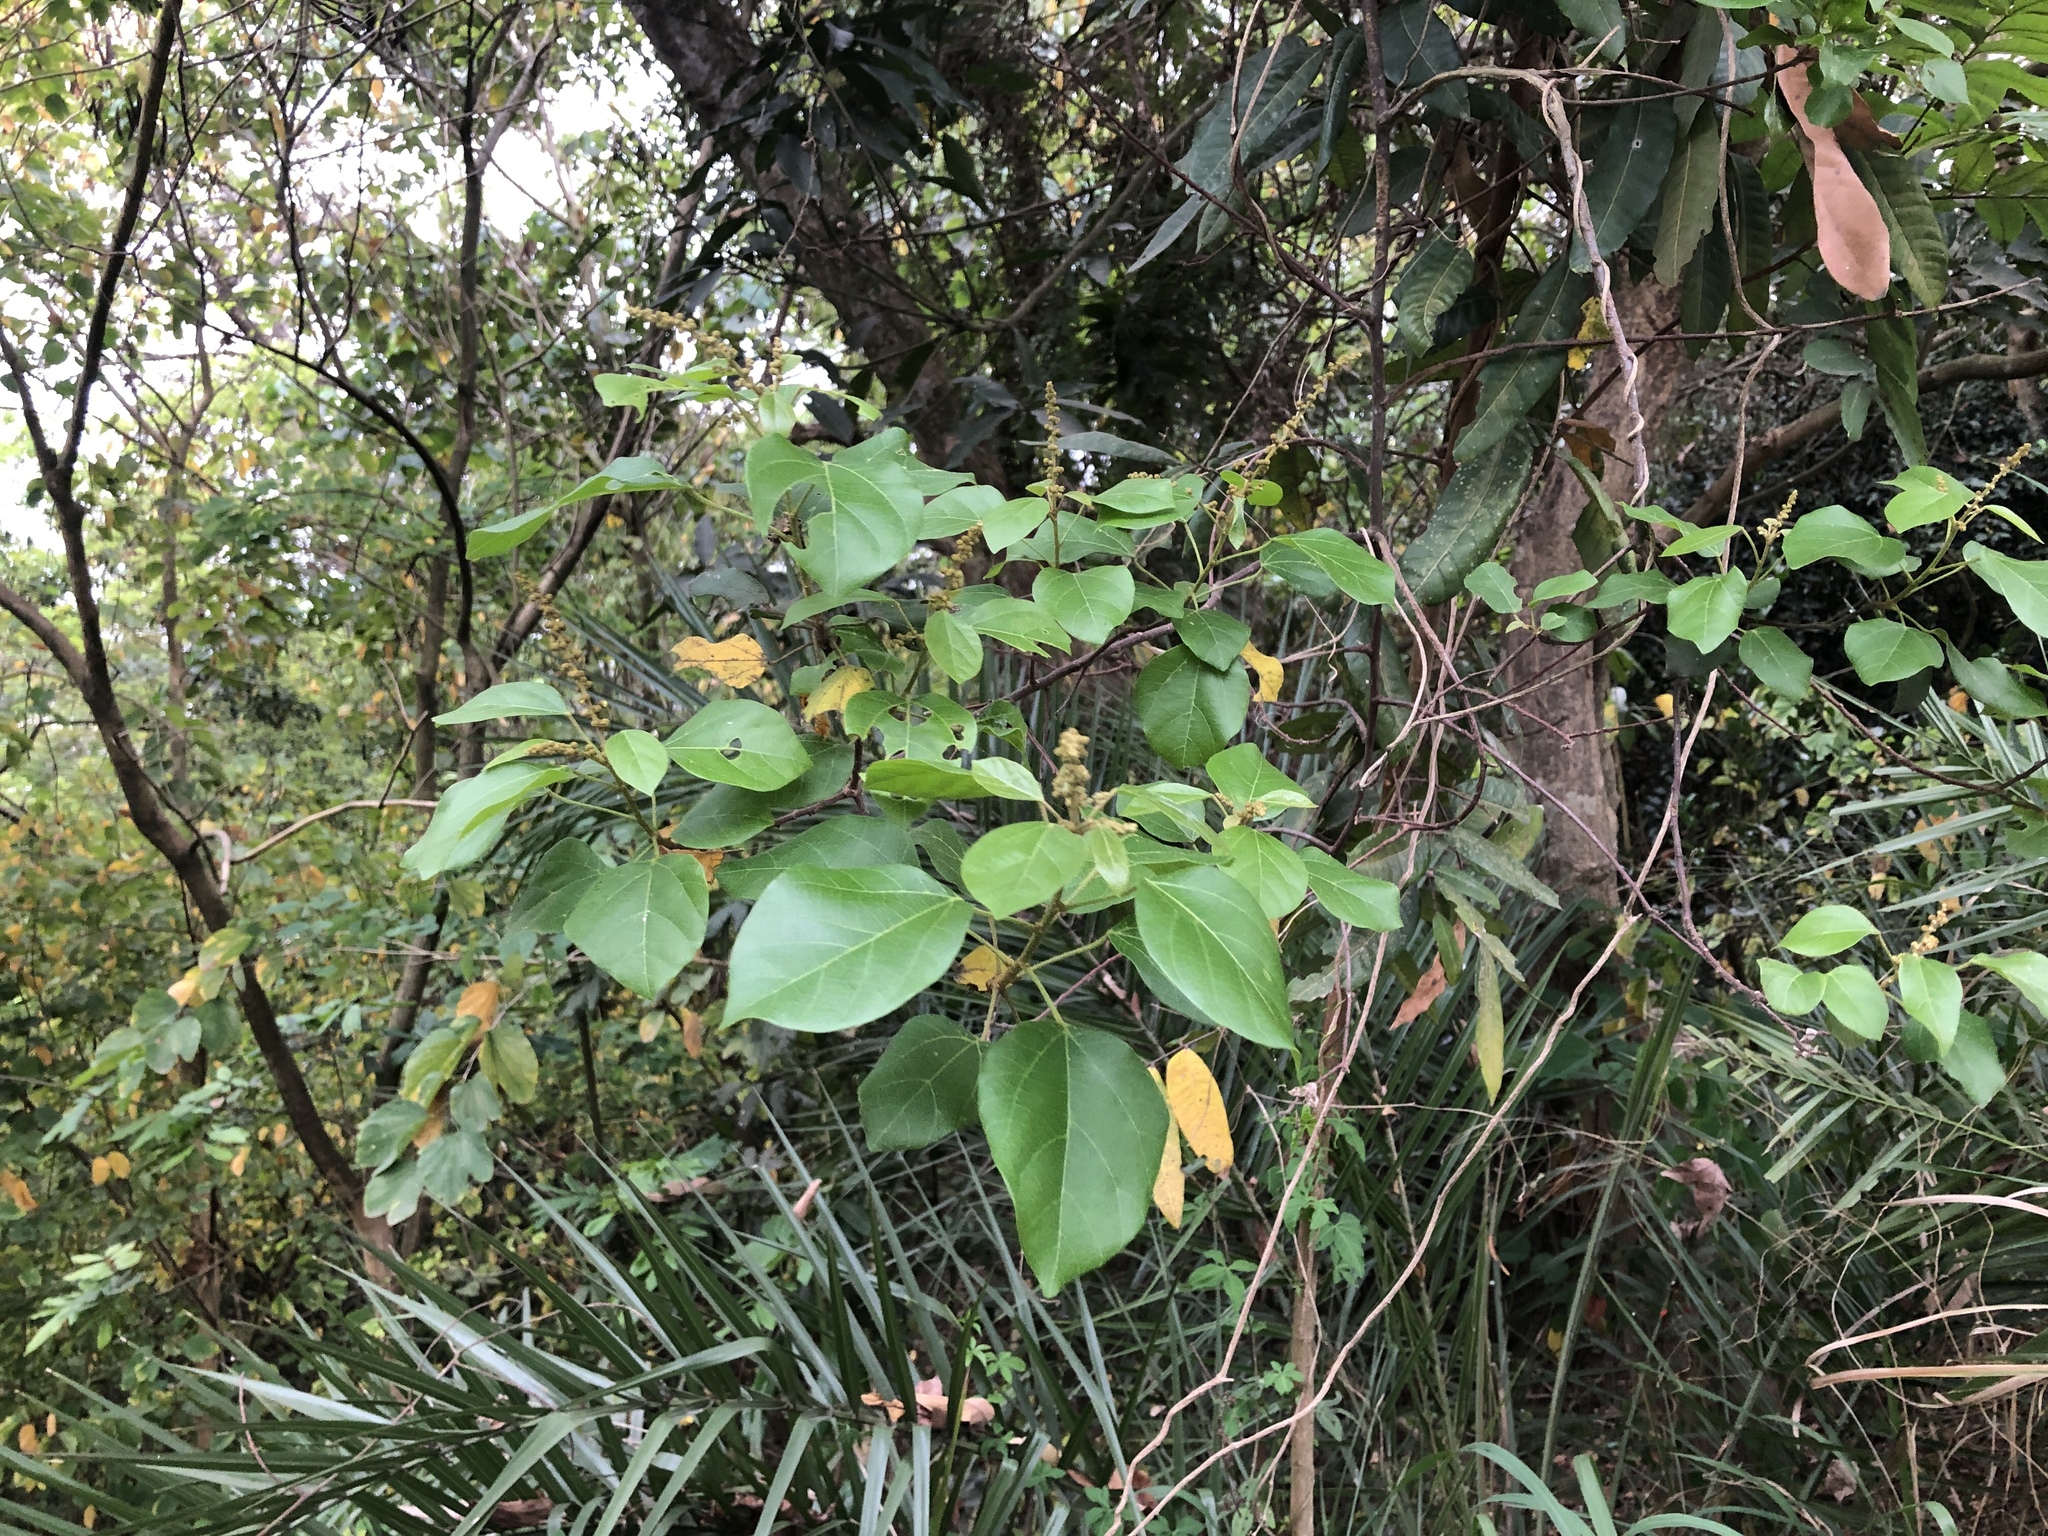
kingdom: Plantae
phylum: Tracheophyta
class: Magnoliopsida
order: Malpighiales
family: Euphorbiaceae
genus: Mallotus
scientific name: Mallotus repandus
